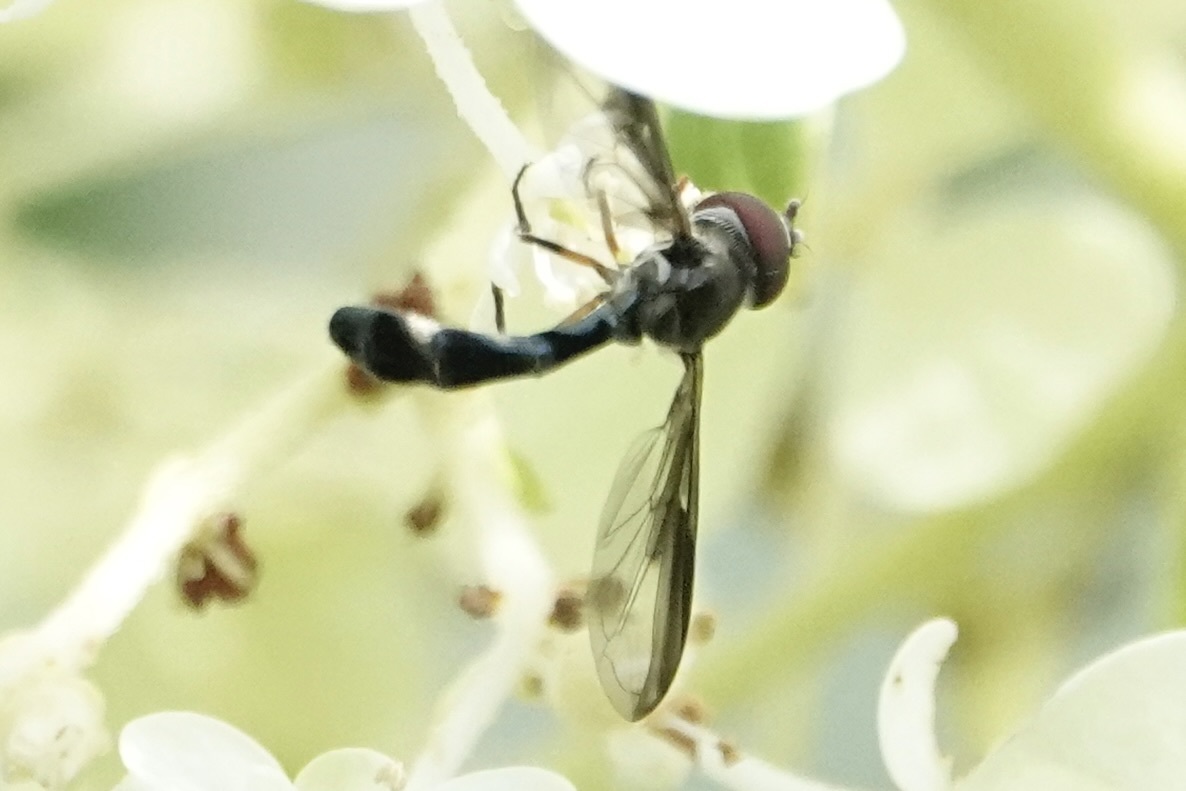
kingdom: Animalia
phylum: Arthropoda
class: Insecta
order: Diptera
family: Syrphidae
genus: Ocyptamus
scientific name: Ocyptamus costatus
